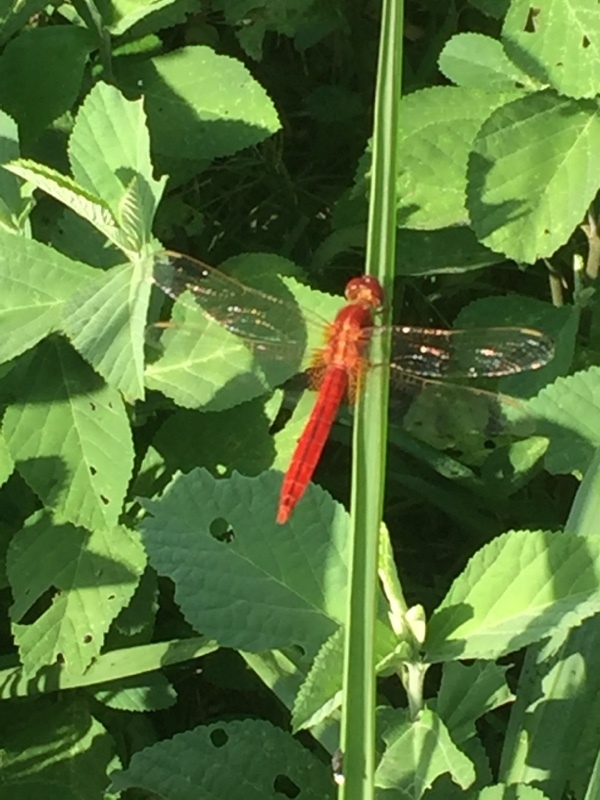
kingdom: Animalia
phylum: Arthropoda
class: Insecta
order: Odonata
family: Libellulidae
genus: Crocothemis
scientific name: Crocothemis servilia
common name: Scarlet skimmer
